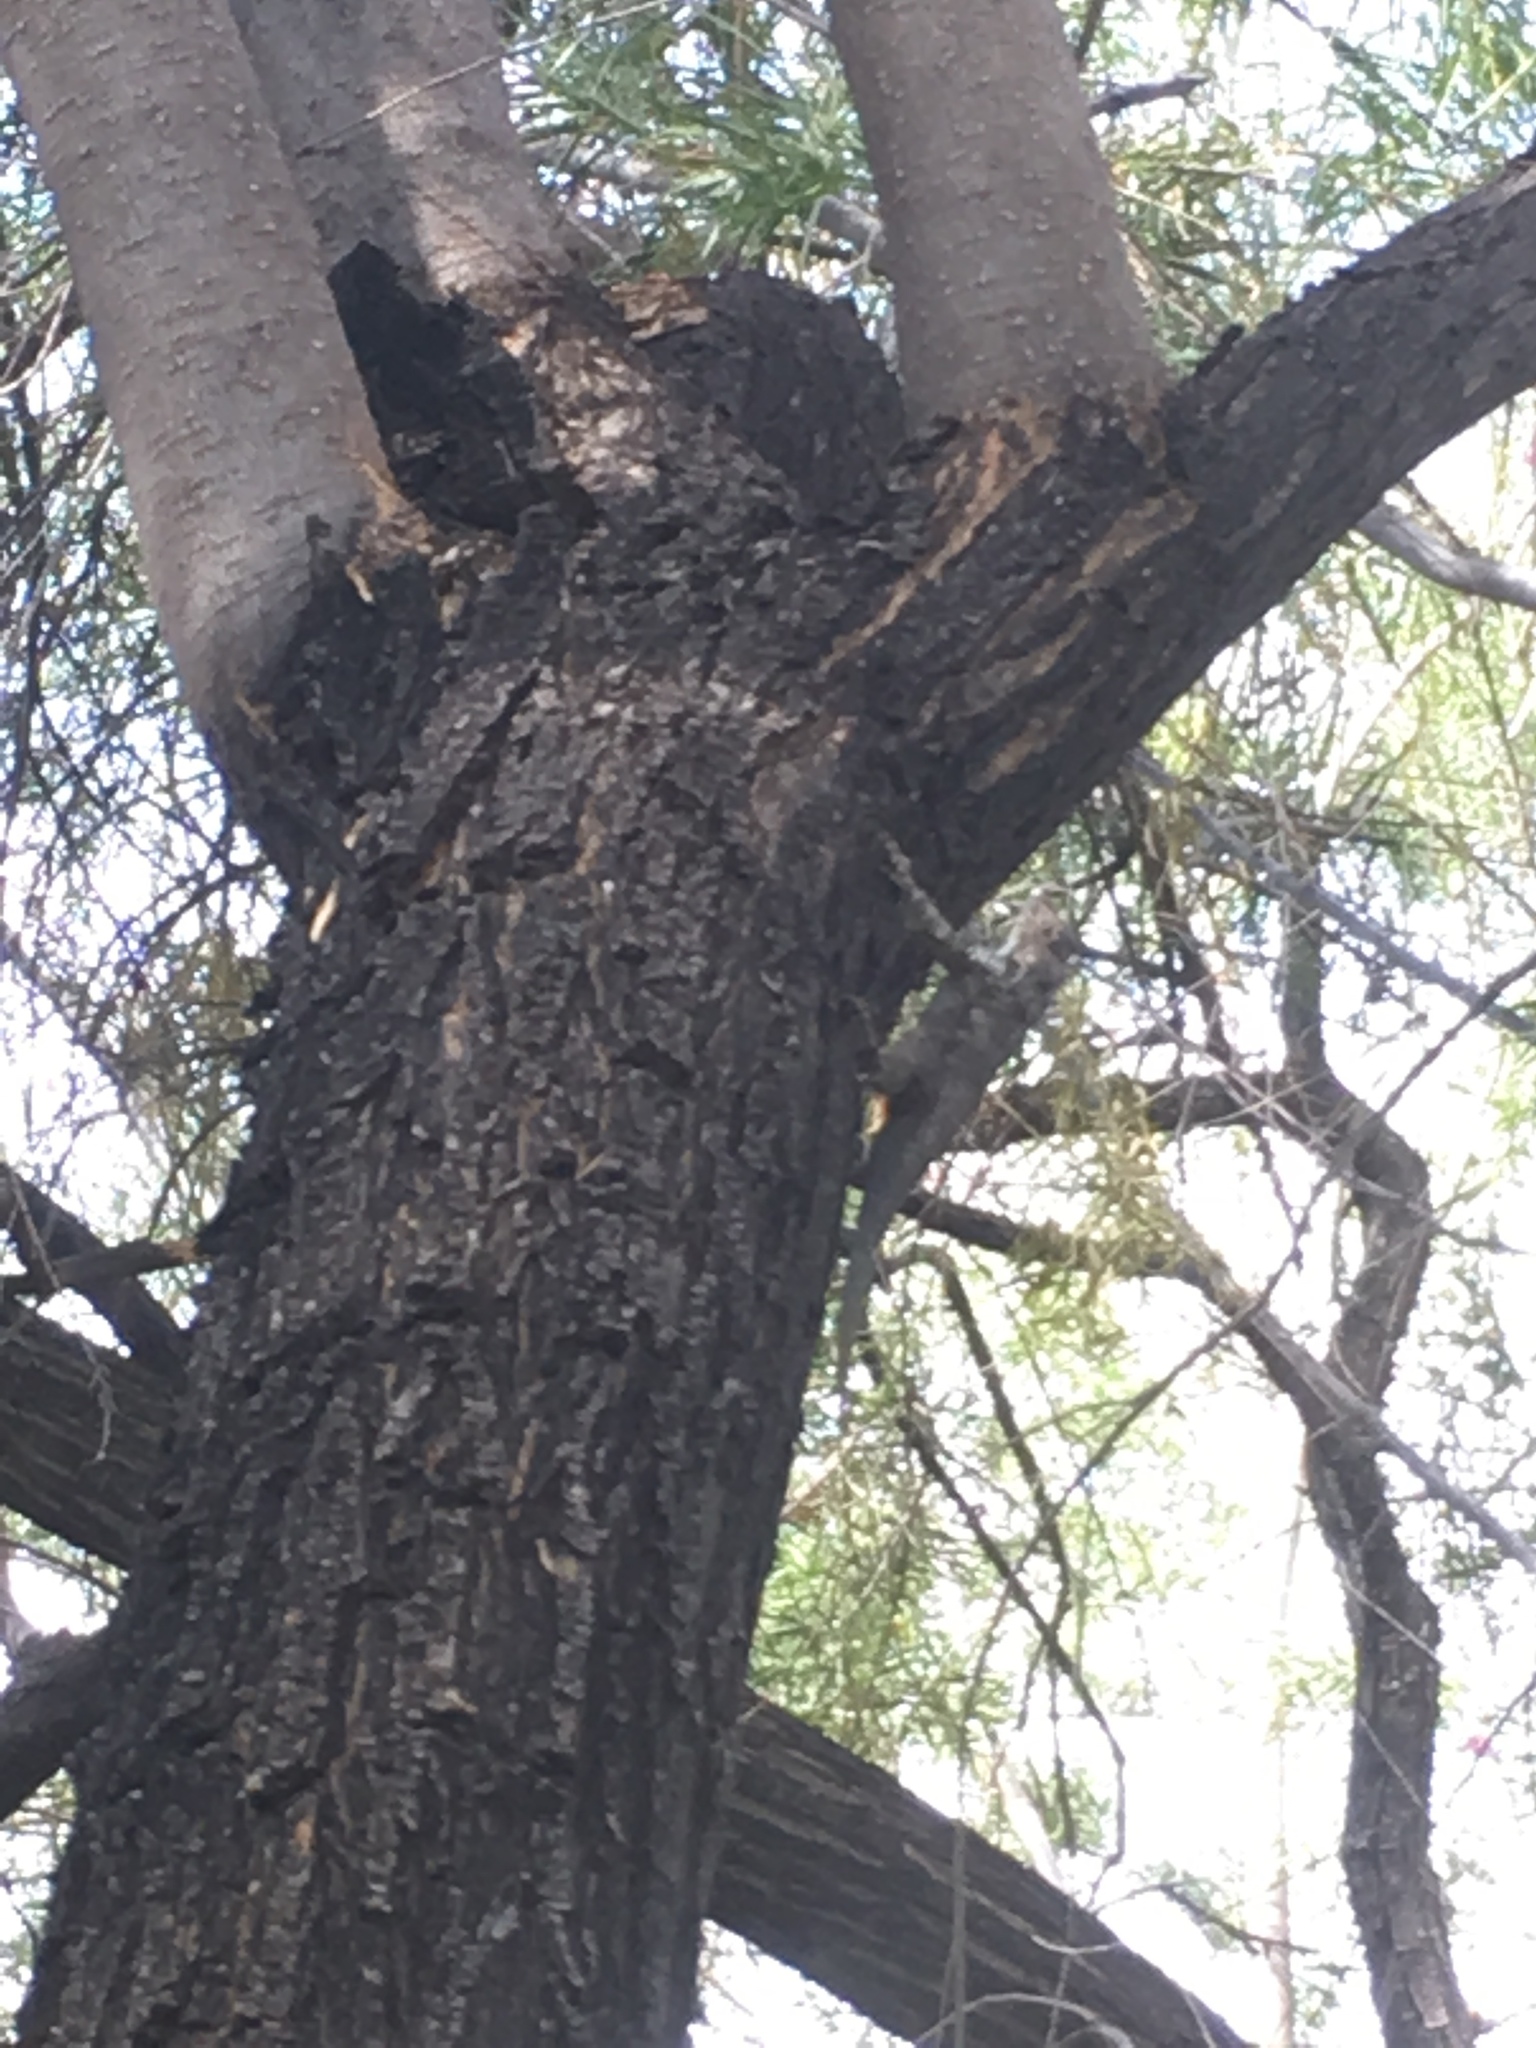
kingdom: Animalia
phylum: Chordata
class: Squamata
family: Phrynosomatidae
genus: Sceloporus
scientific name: Sceloporus clarkii
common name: Clark's spiny lizard
